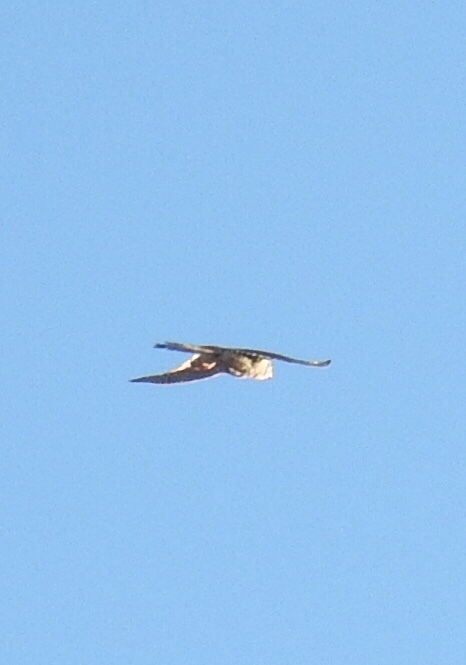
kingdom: Animalia
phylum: Chordata
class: Aves
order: Falconiformes
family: Falconidae
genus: Falco
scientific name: Falco sparverius
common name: American kestrel
